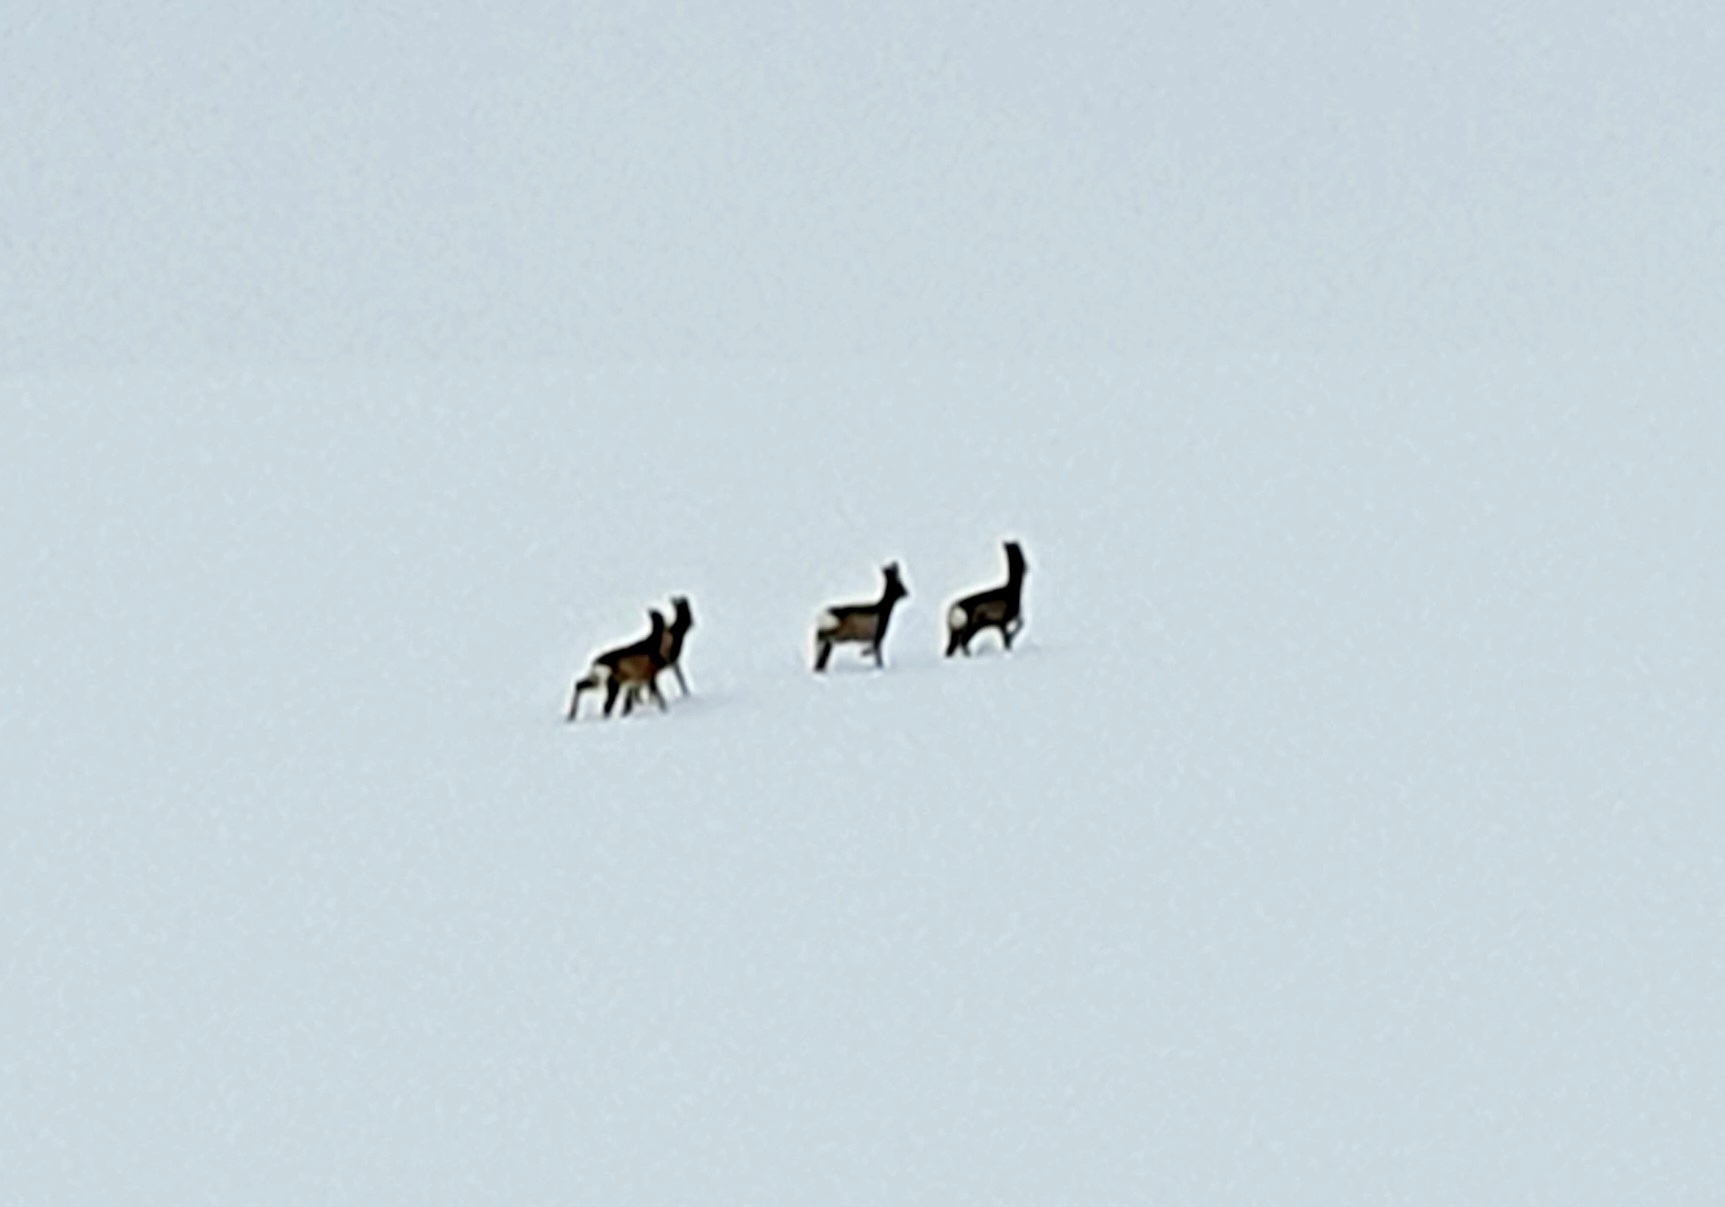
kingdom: Animalia
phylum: Chordata
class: Mammalia
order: Artiodactyla
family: Cervidae
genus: Capreolus
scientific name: Capreolus pygargus
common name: Siberian roe
